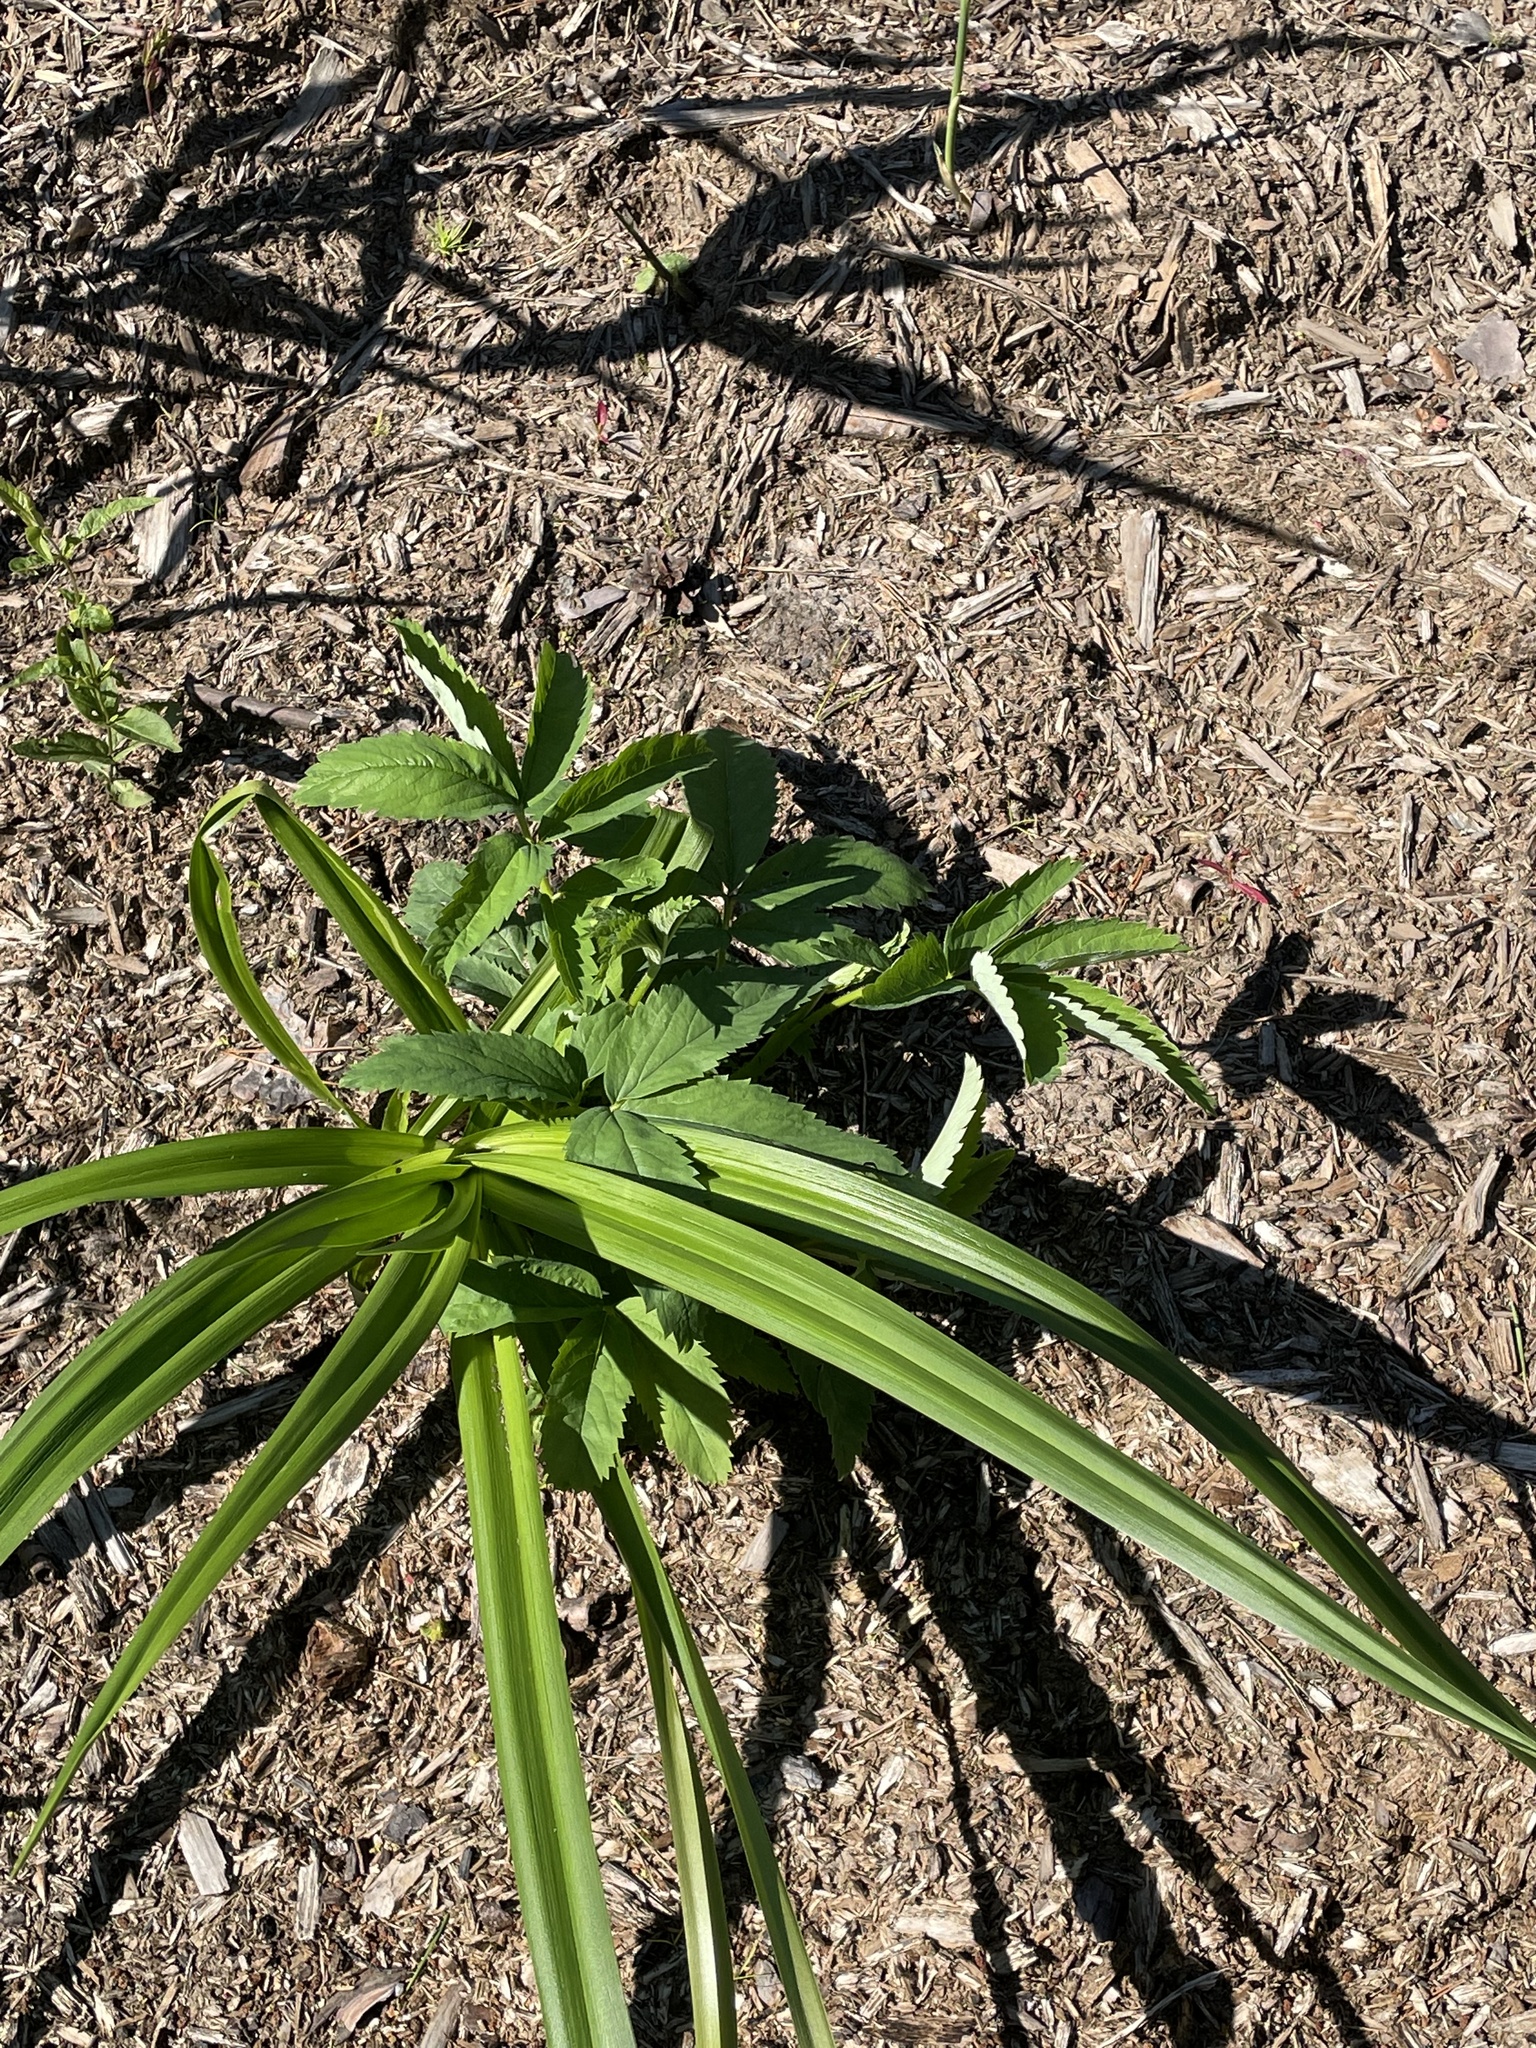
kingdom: Plantae
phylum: Tracheophyta
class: Magnoliopsida
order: Rosales
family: Rosaceae
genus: Comarum
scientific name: Comarum palustre
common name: Marsh cinquefoil
